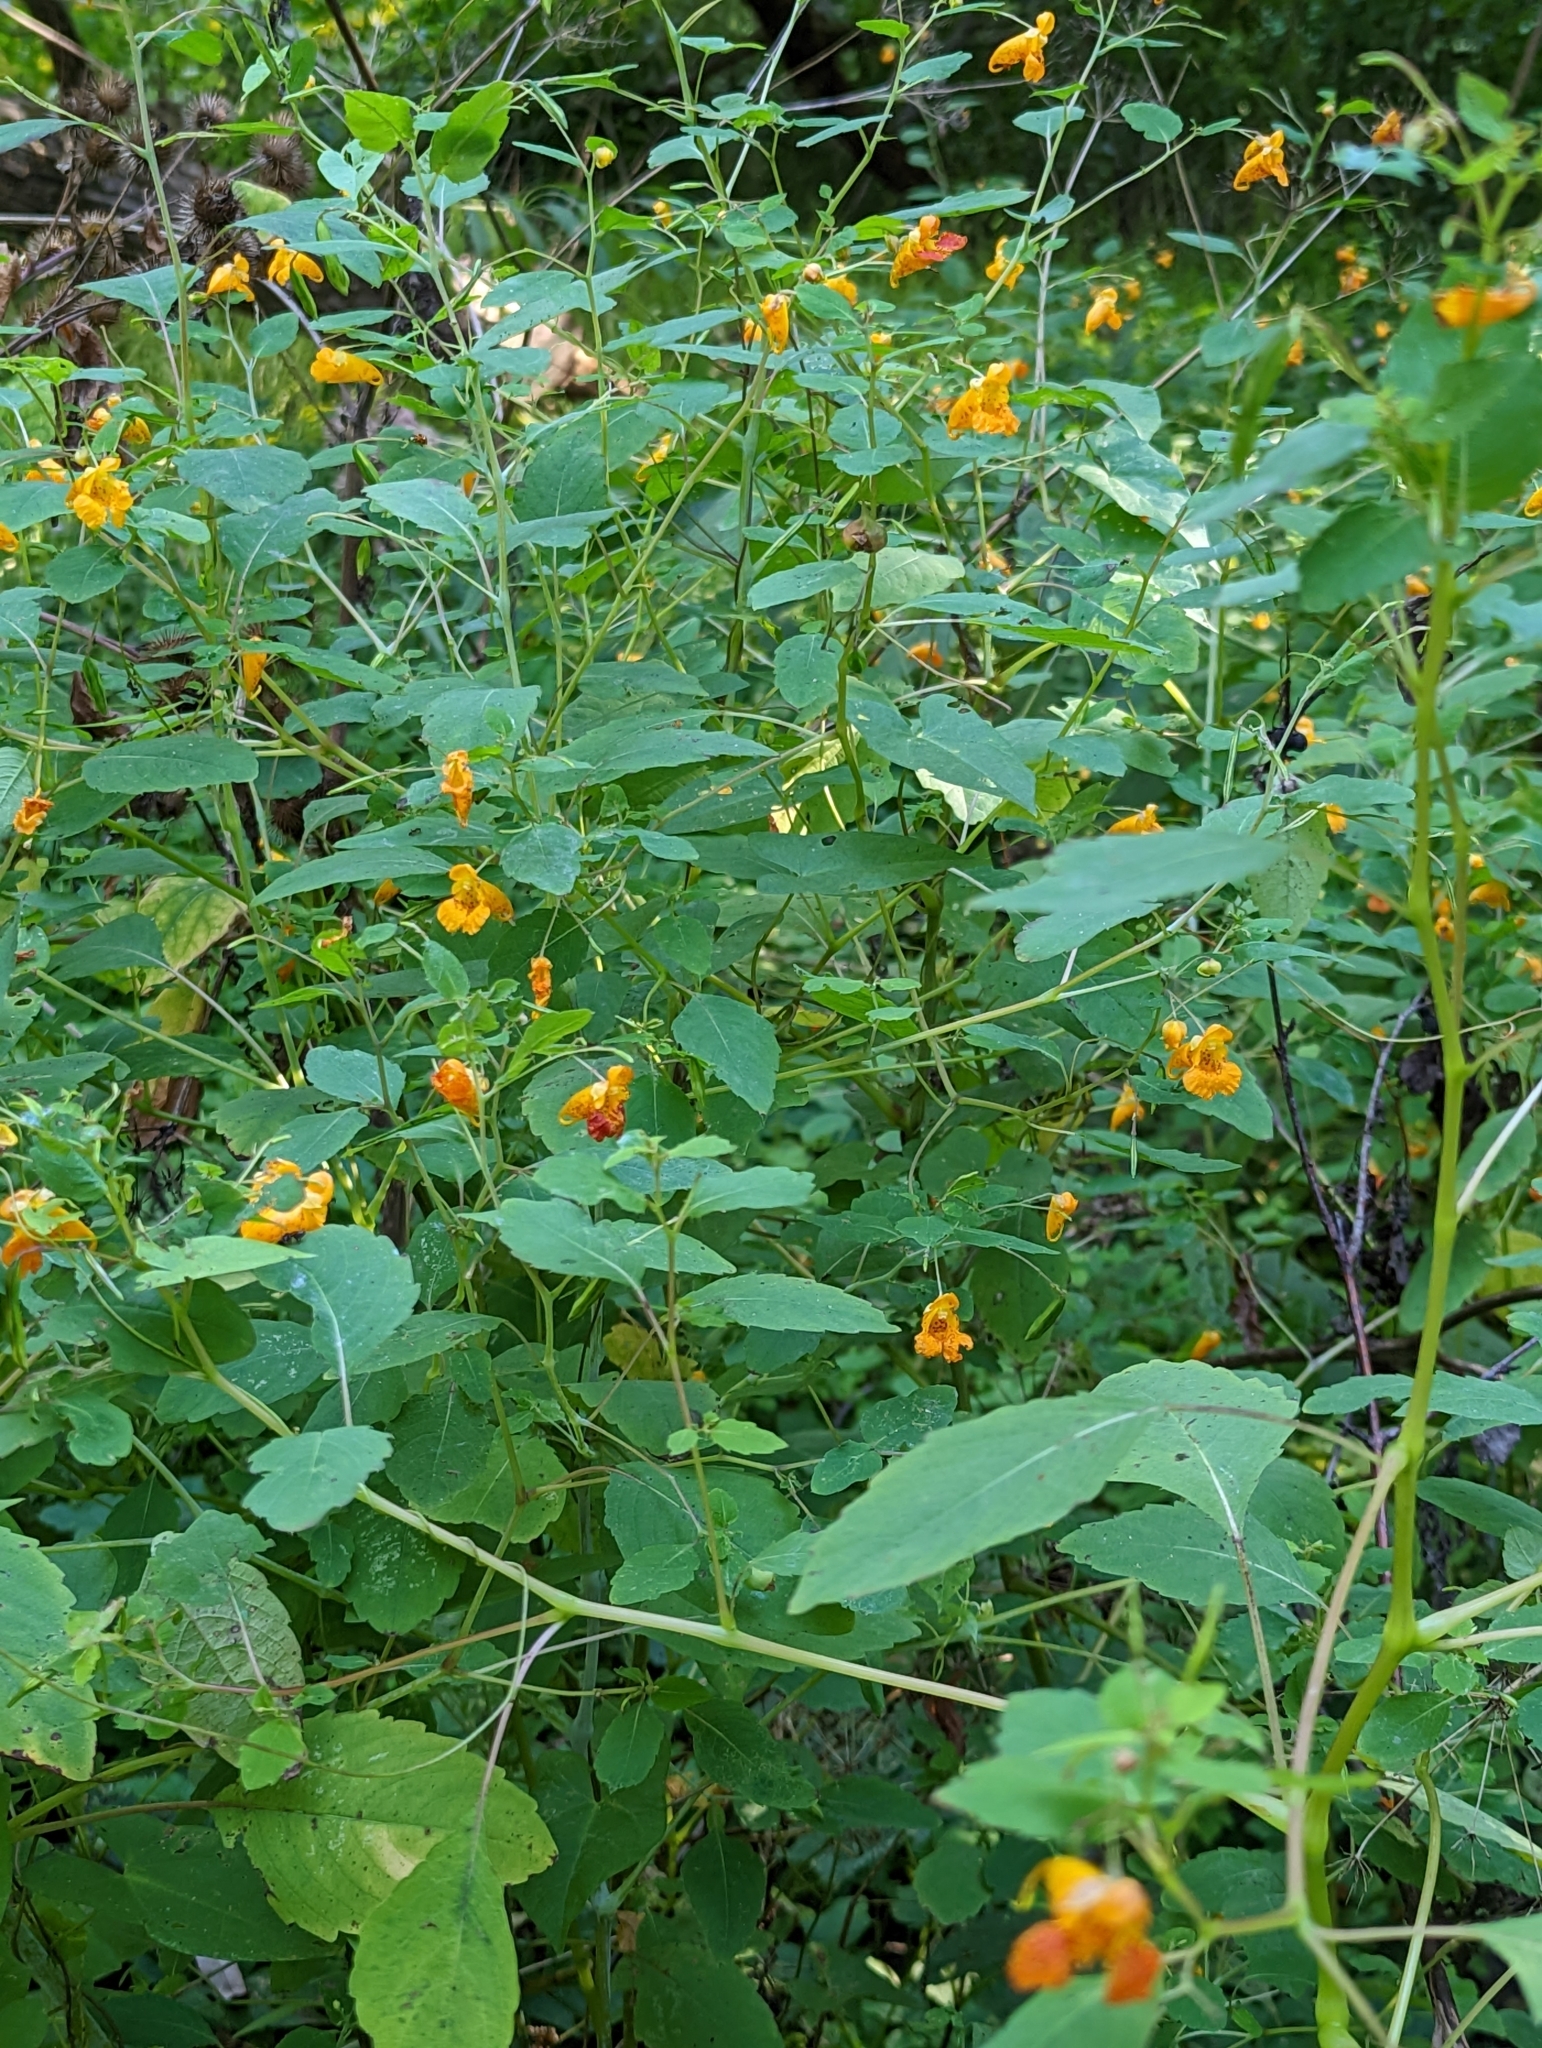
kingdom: Plantae
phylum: Tracheophyta
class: Magnoliopsida
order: Ericales
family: Balsaminaceae
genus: Impatiens
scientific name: Impatiens capensis
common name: Orange balsam
